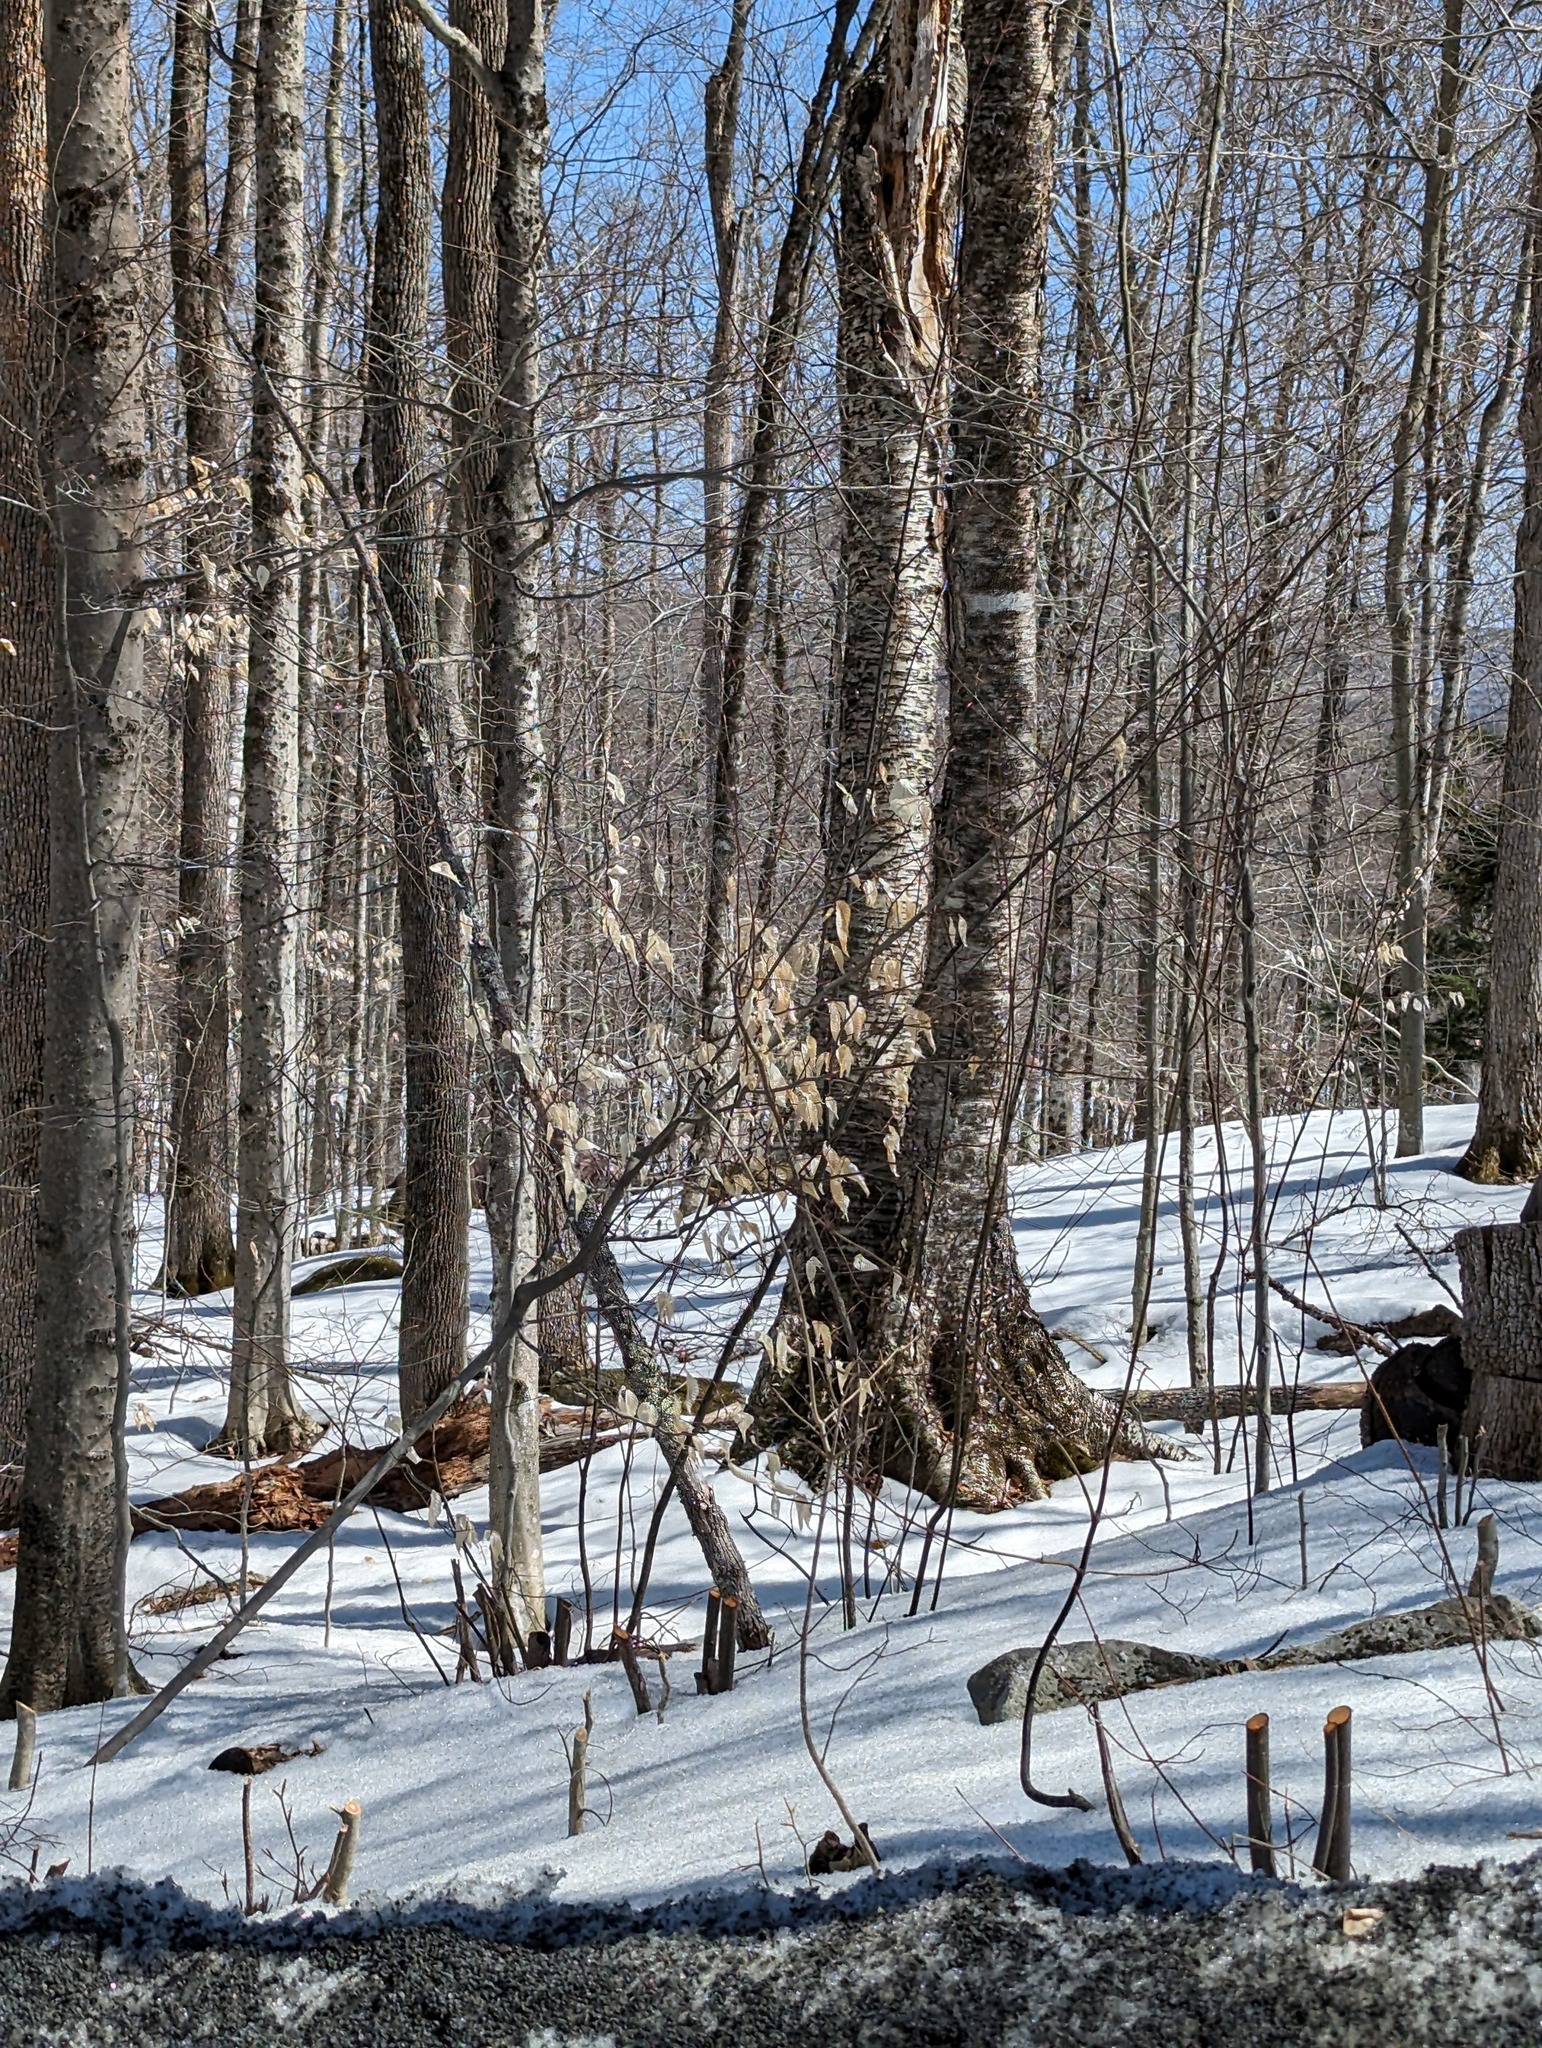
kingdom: Plantae
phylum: Tracheophyta
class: Magnoliopsida
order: Fagales
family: Fagaceae
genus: Fagus
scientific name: Fagus grandifolia
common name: American beech
